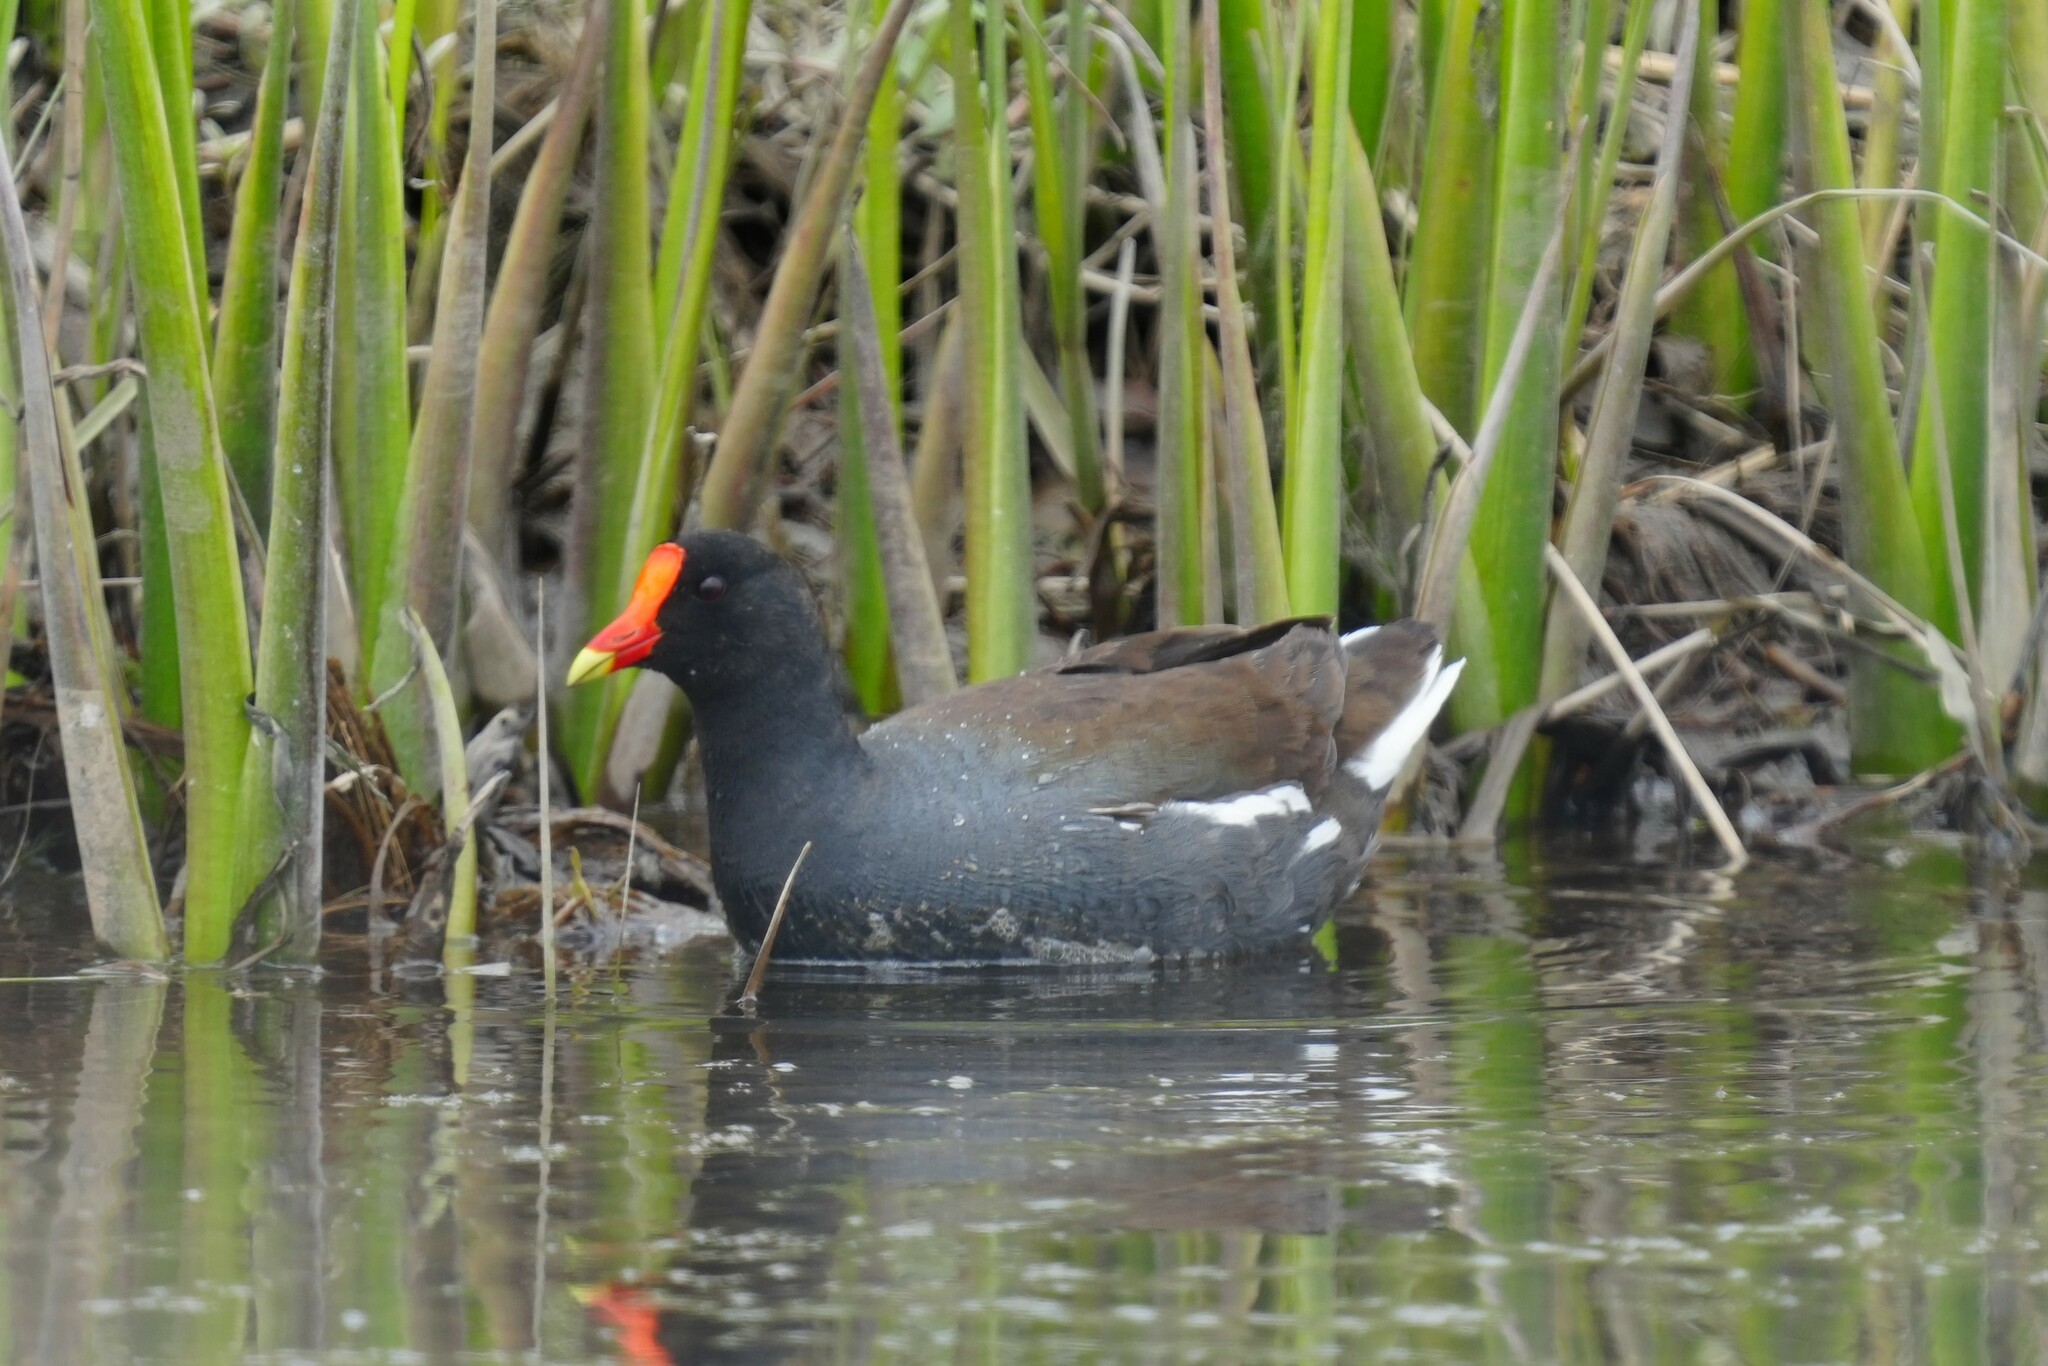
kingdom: Animalia
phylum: Chordata
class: Aves
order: Gruiformes
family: Rallidae
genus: Gallinula
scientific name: Gallinula chloropus
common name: Common moorhen
